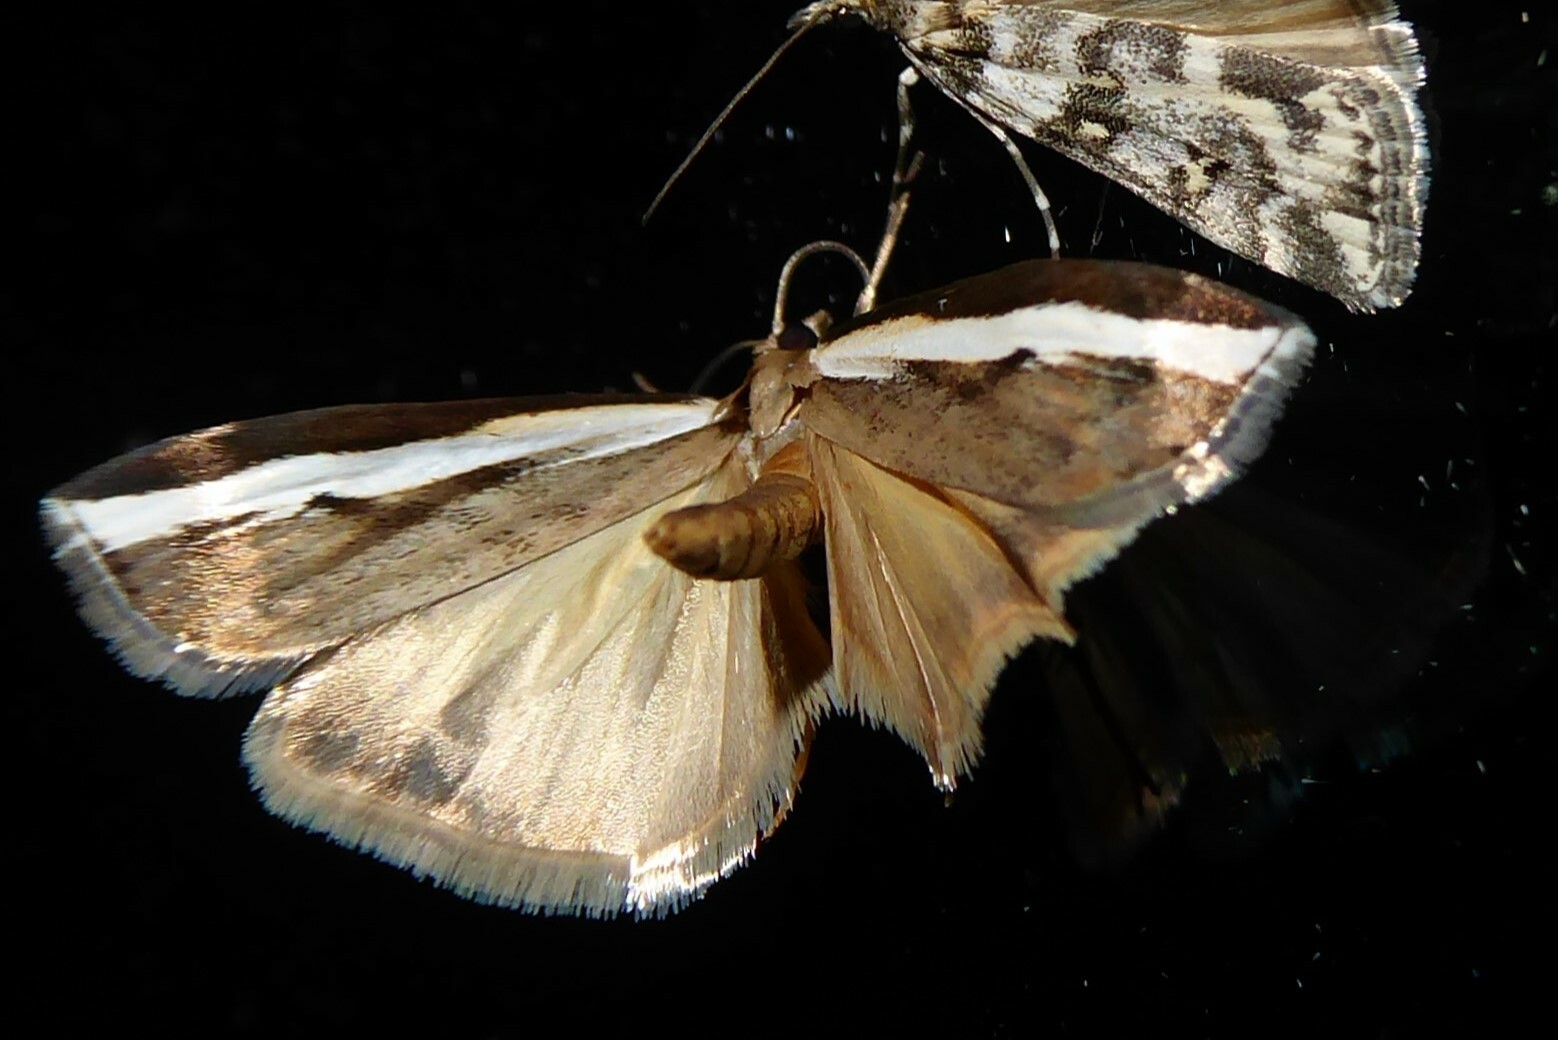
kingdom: Animalia
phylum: Arthropoda
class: Insecta
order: Lepidoptera
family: Crambidae
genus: Orocrambus
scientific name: Orocrambus flexuosellus
